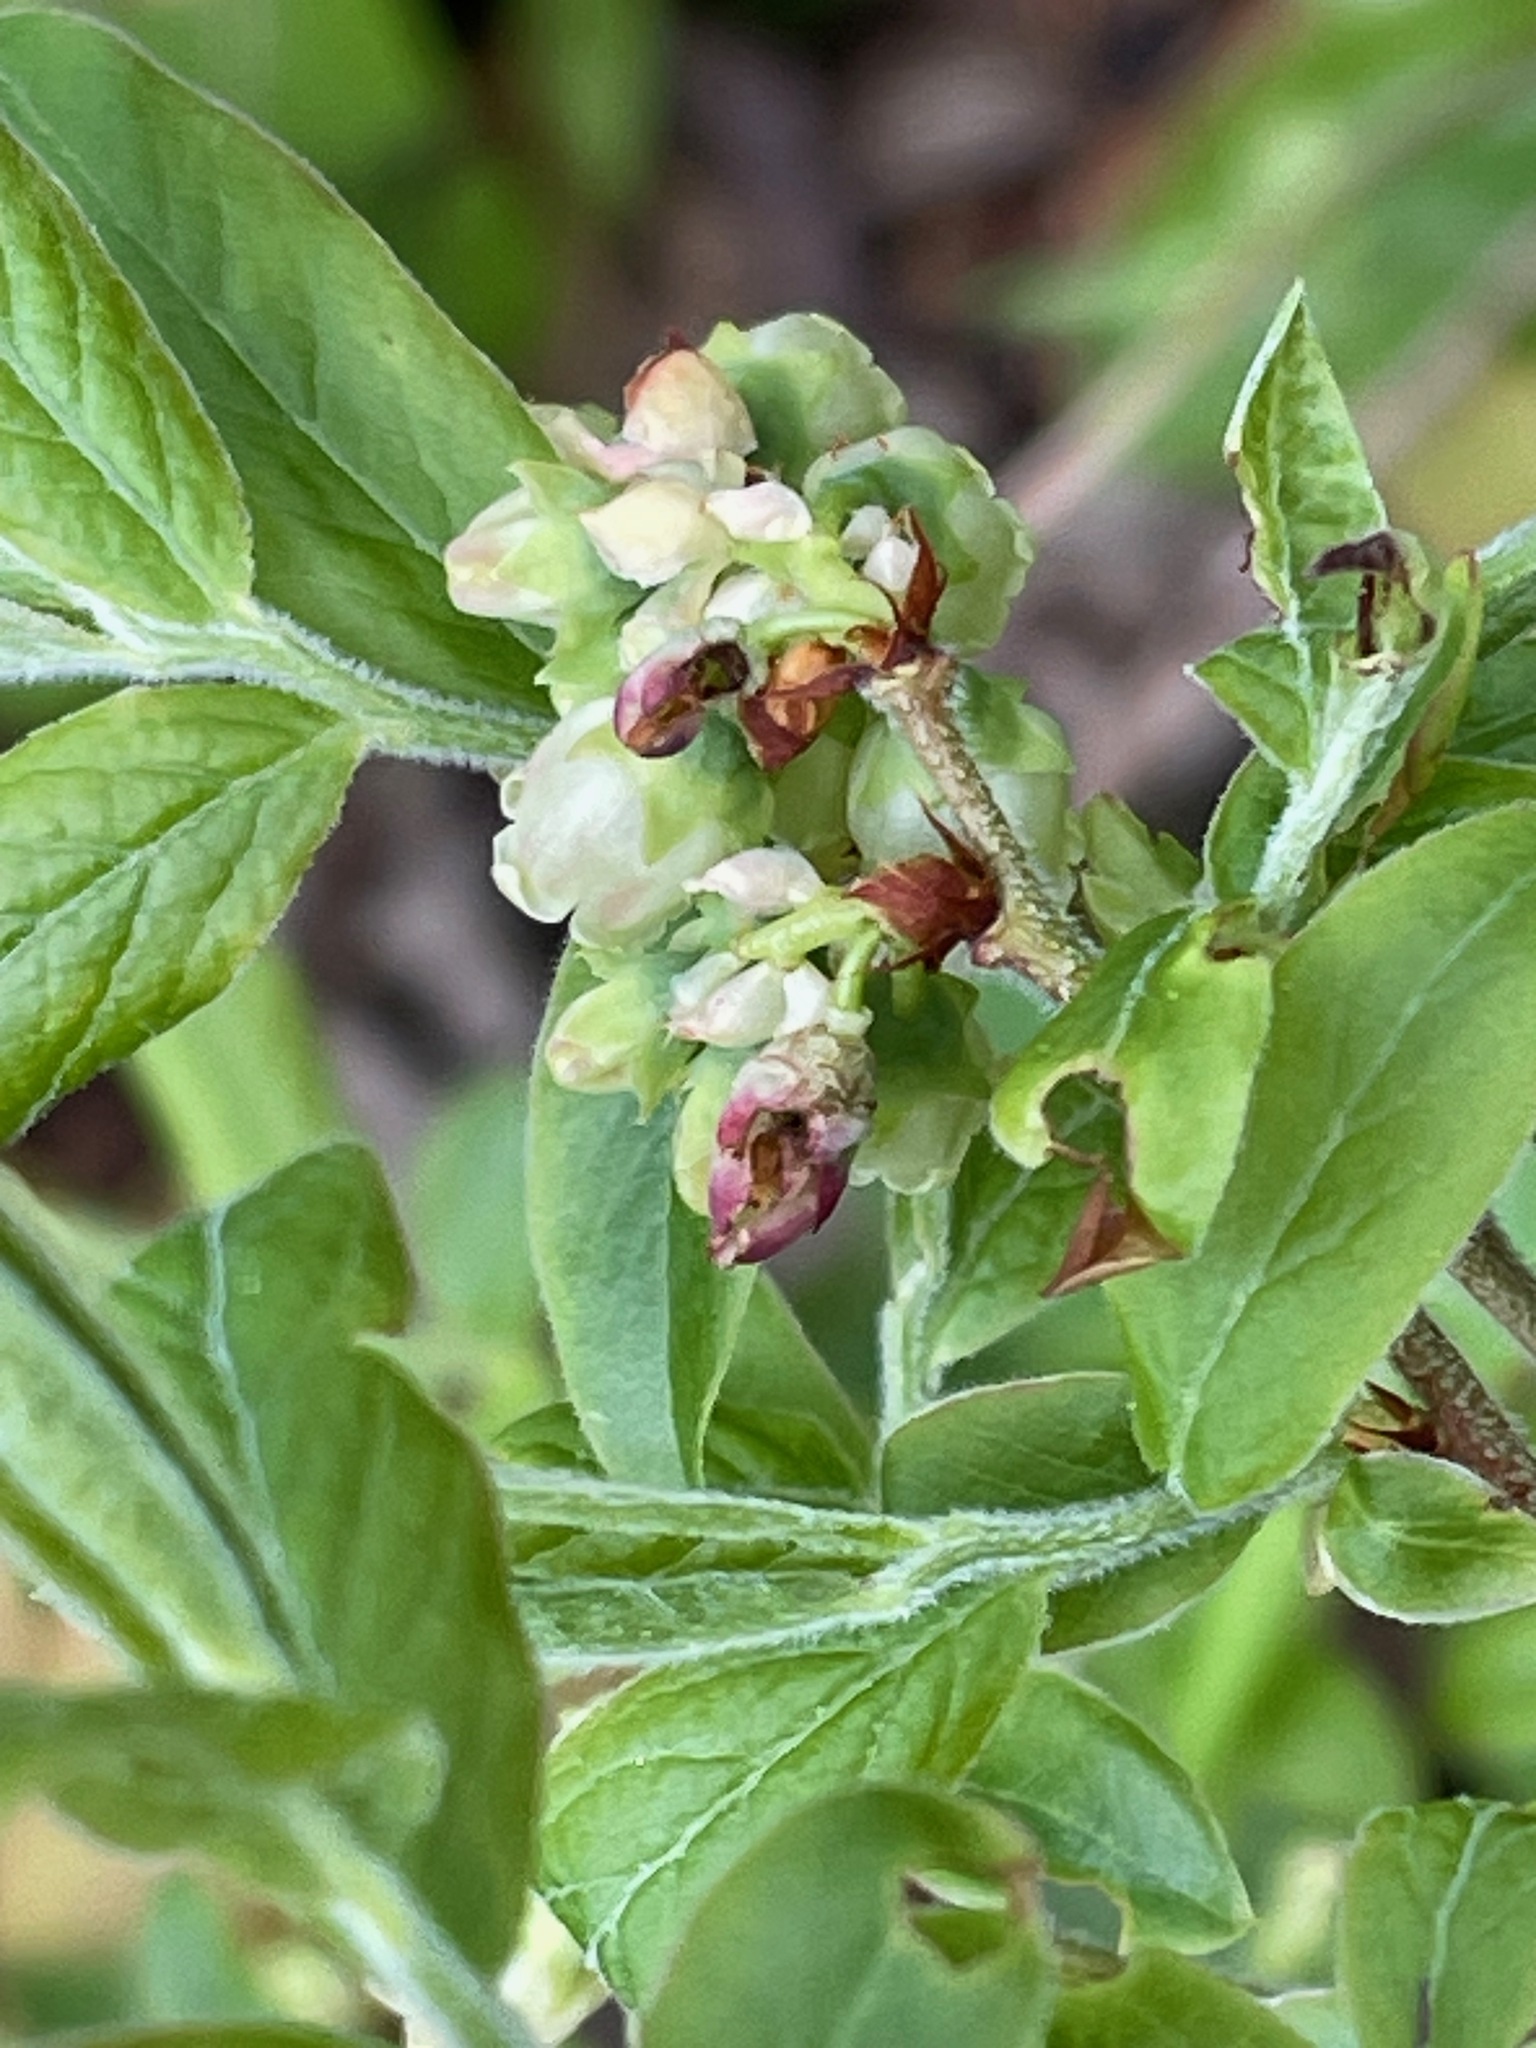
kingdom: Plantae
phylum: Tracheophyta
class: Magnoliopsida
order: Ericales
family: Ericaceae
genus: Vaccinium
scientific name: Vaccinium myrtilloides
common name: Canada blueberry
